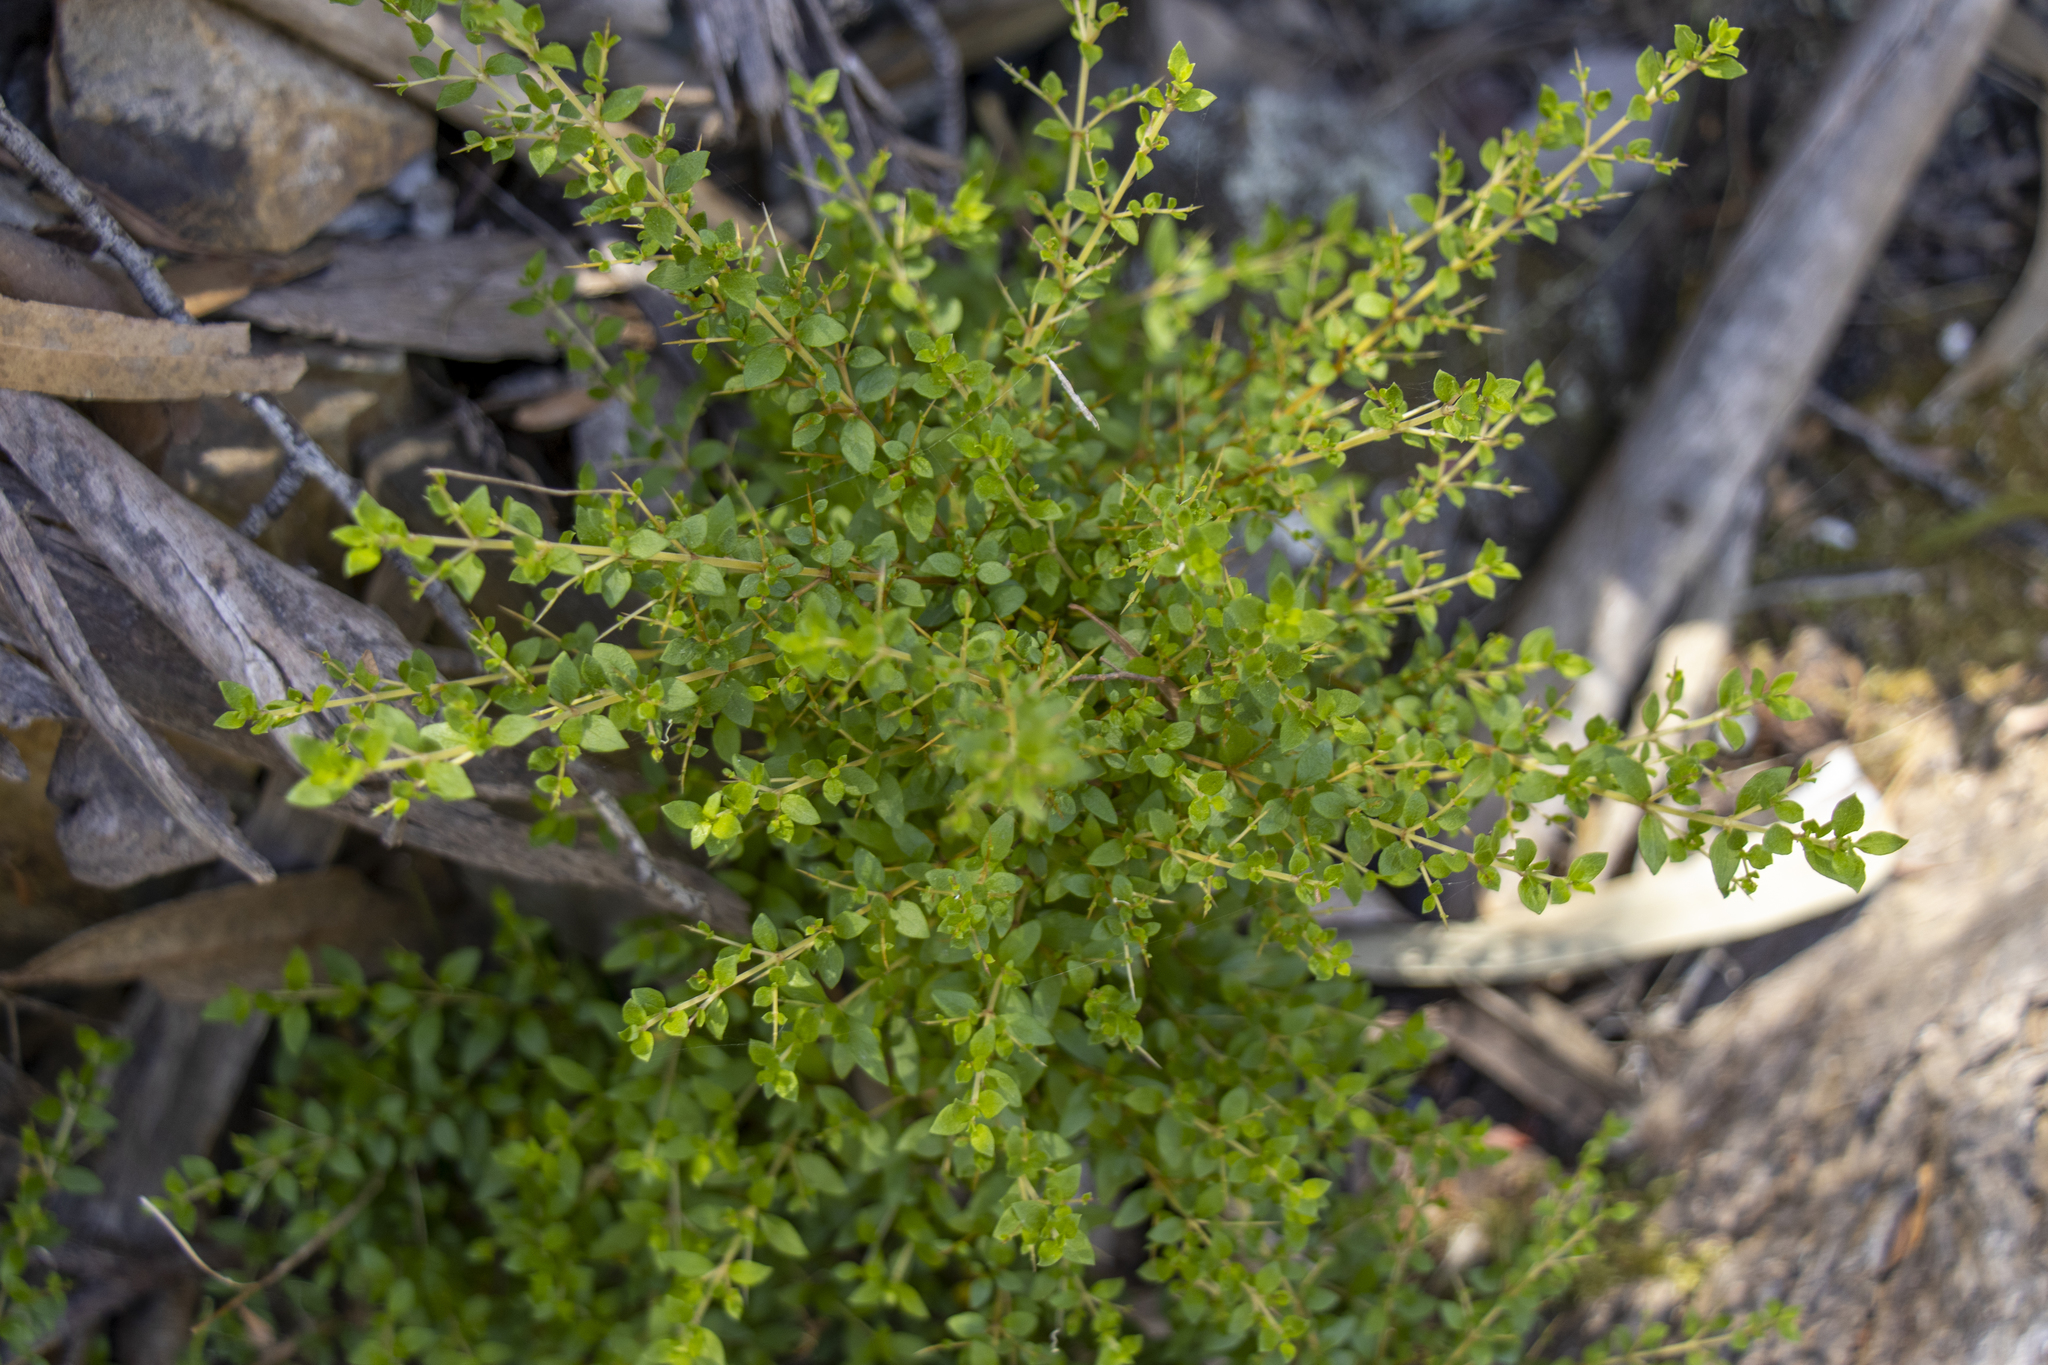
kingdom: Plantae
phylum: Tracheophyta
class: Magnoliopsida
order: Apiales
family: Pittosporaceae
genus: Bursaria
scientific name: Bursaria spinosa
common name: Australian blackthorn
